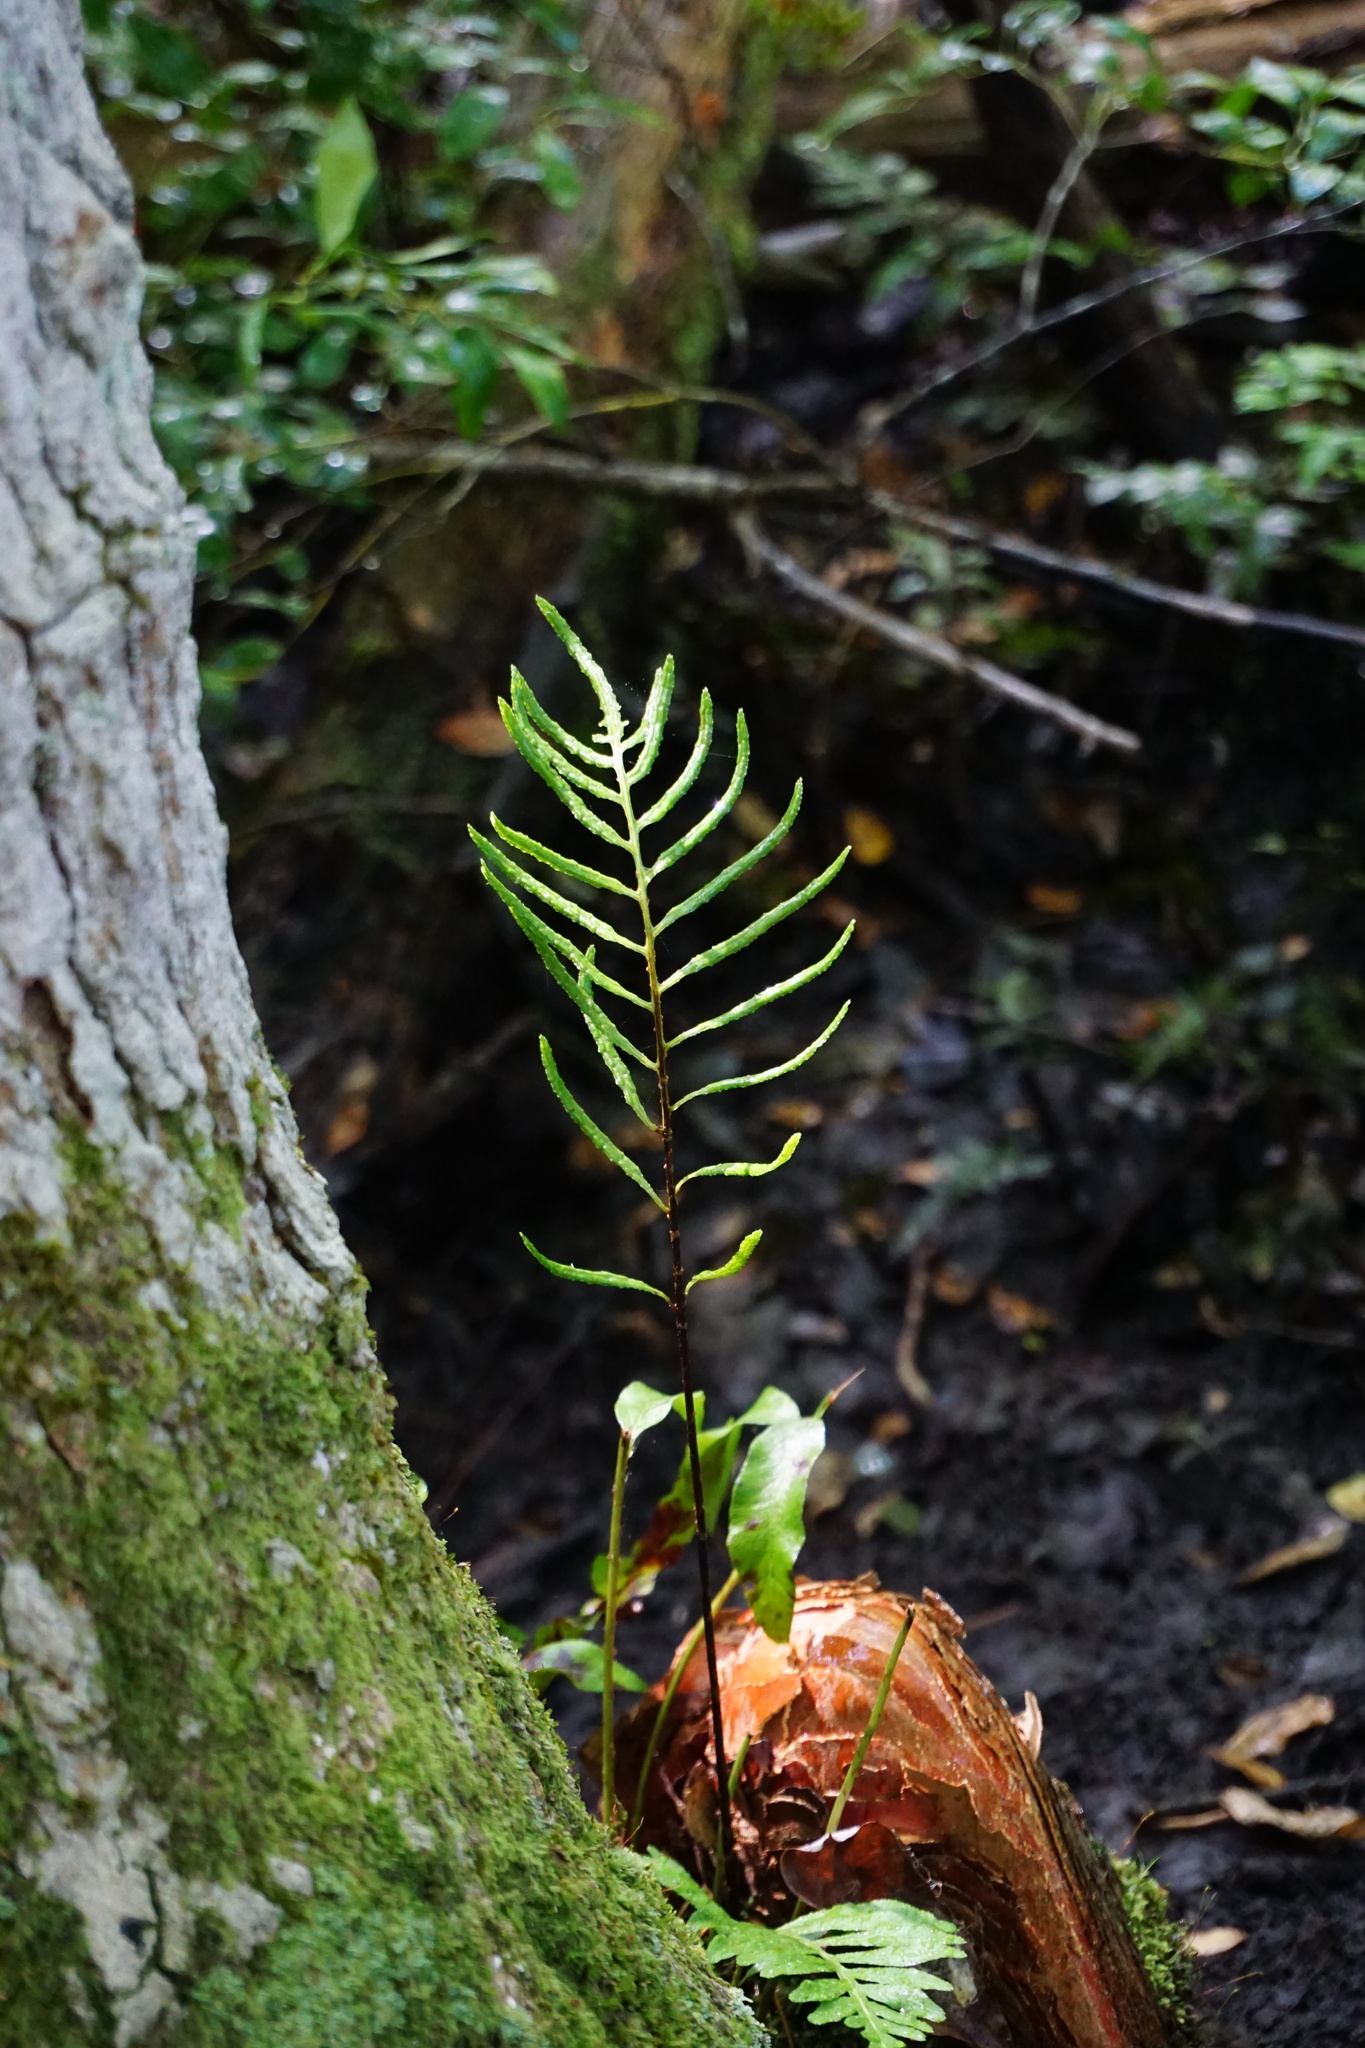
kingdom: Plantae
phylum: Tracheophyta
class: Polypodiopsida
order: Polypodiales
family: Blechnaceae
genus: Lorinseria
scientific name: Lorinseria areolata
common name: Dwarf chain fern
